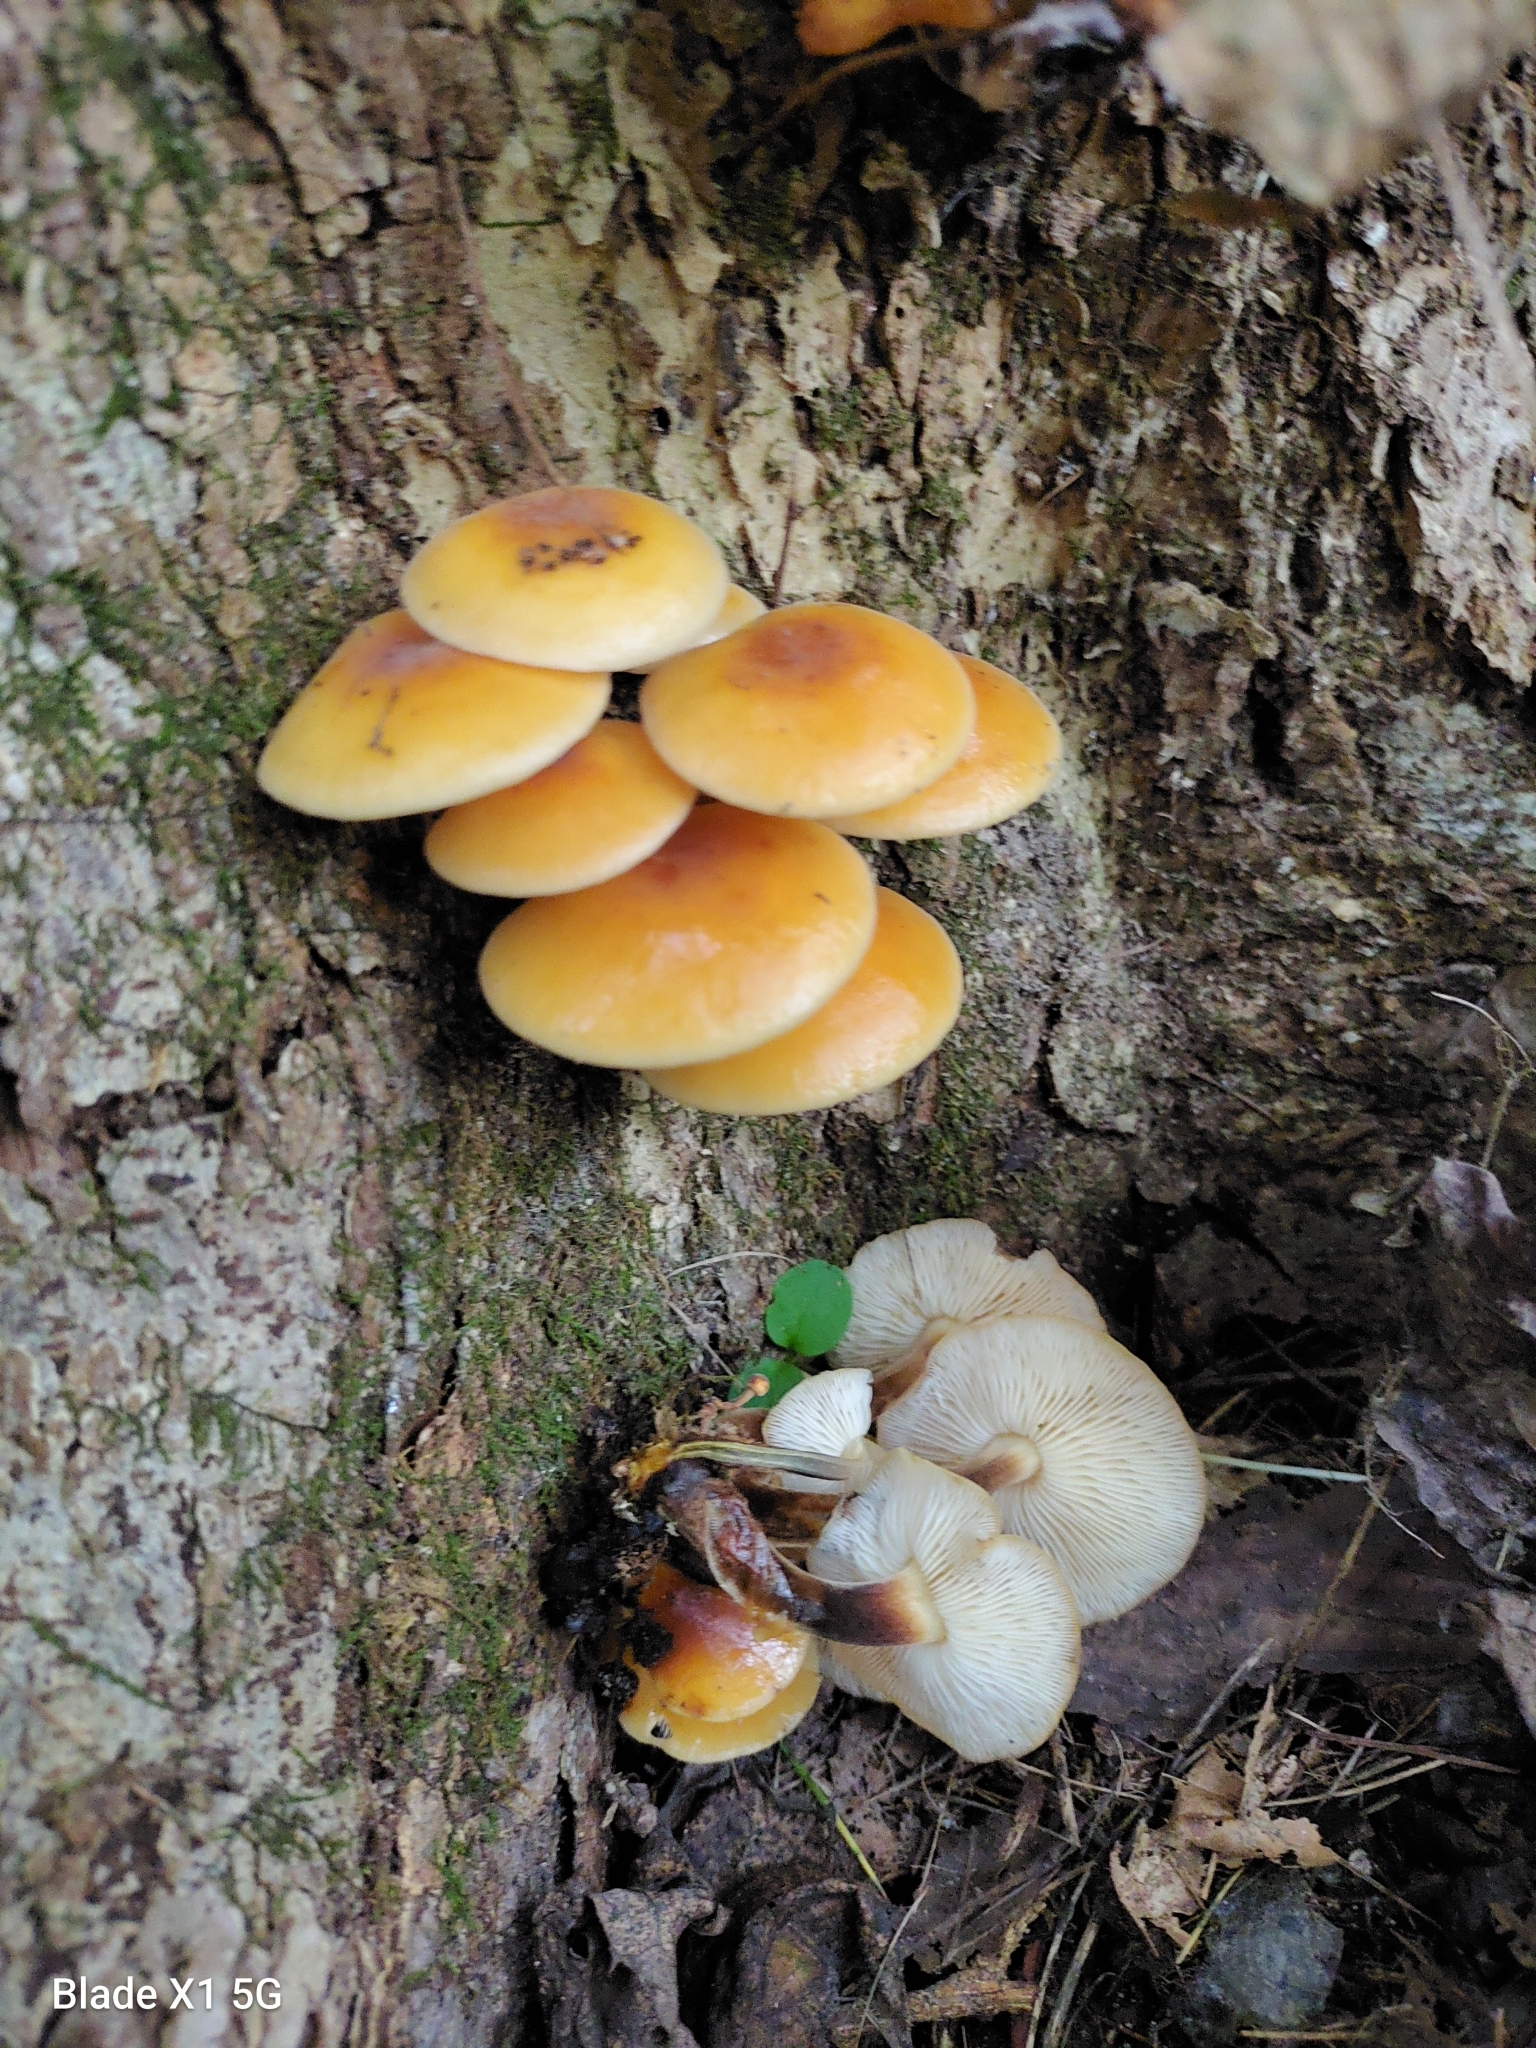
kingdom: Fungi
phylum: Basidiomycota
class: Agaricomycetes
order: Agaricales
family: Physalacriaceae
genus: Flammulina
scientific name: Flammulina velutipes
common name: Velvet shank
